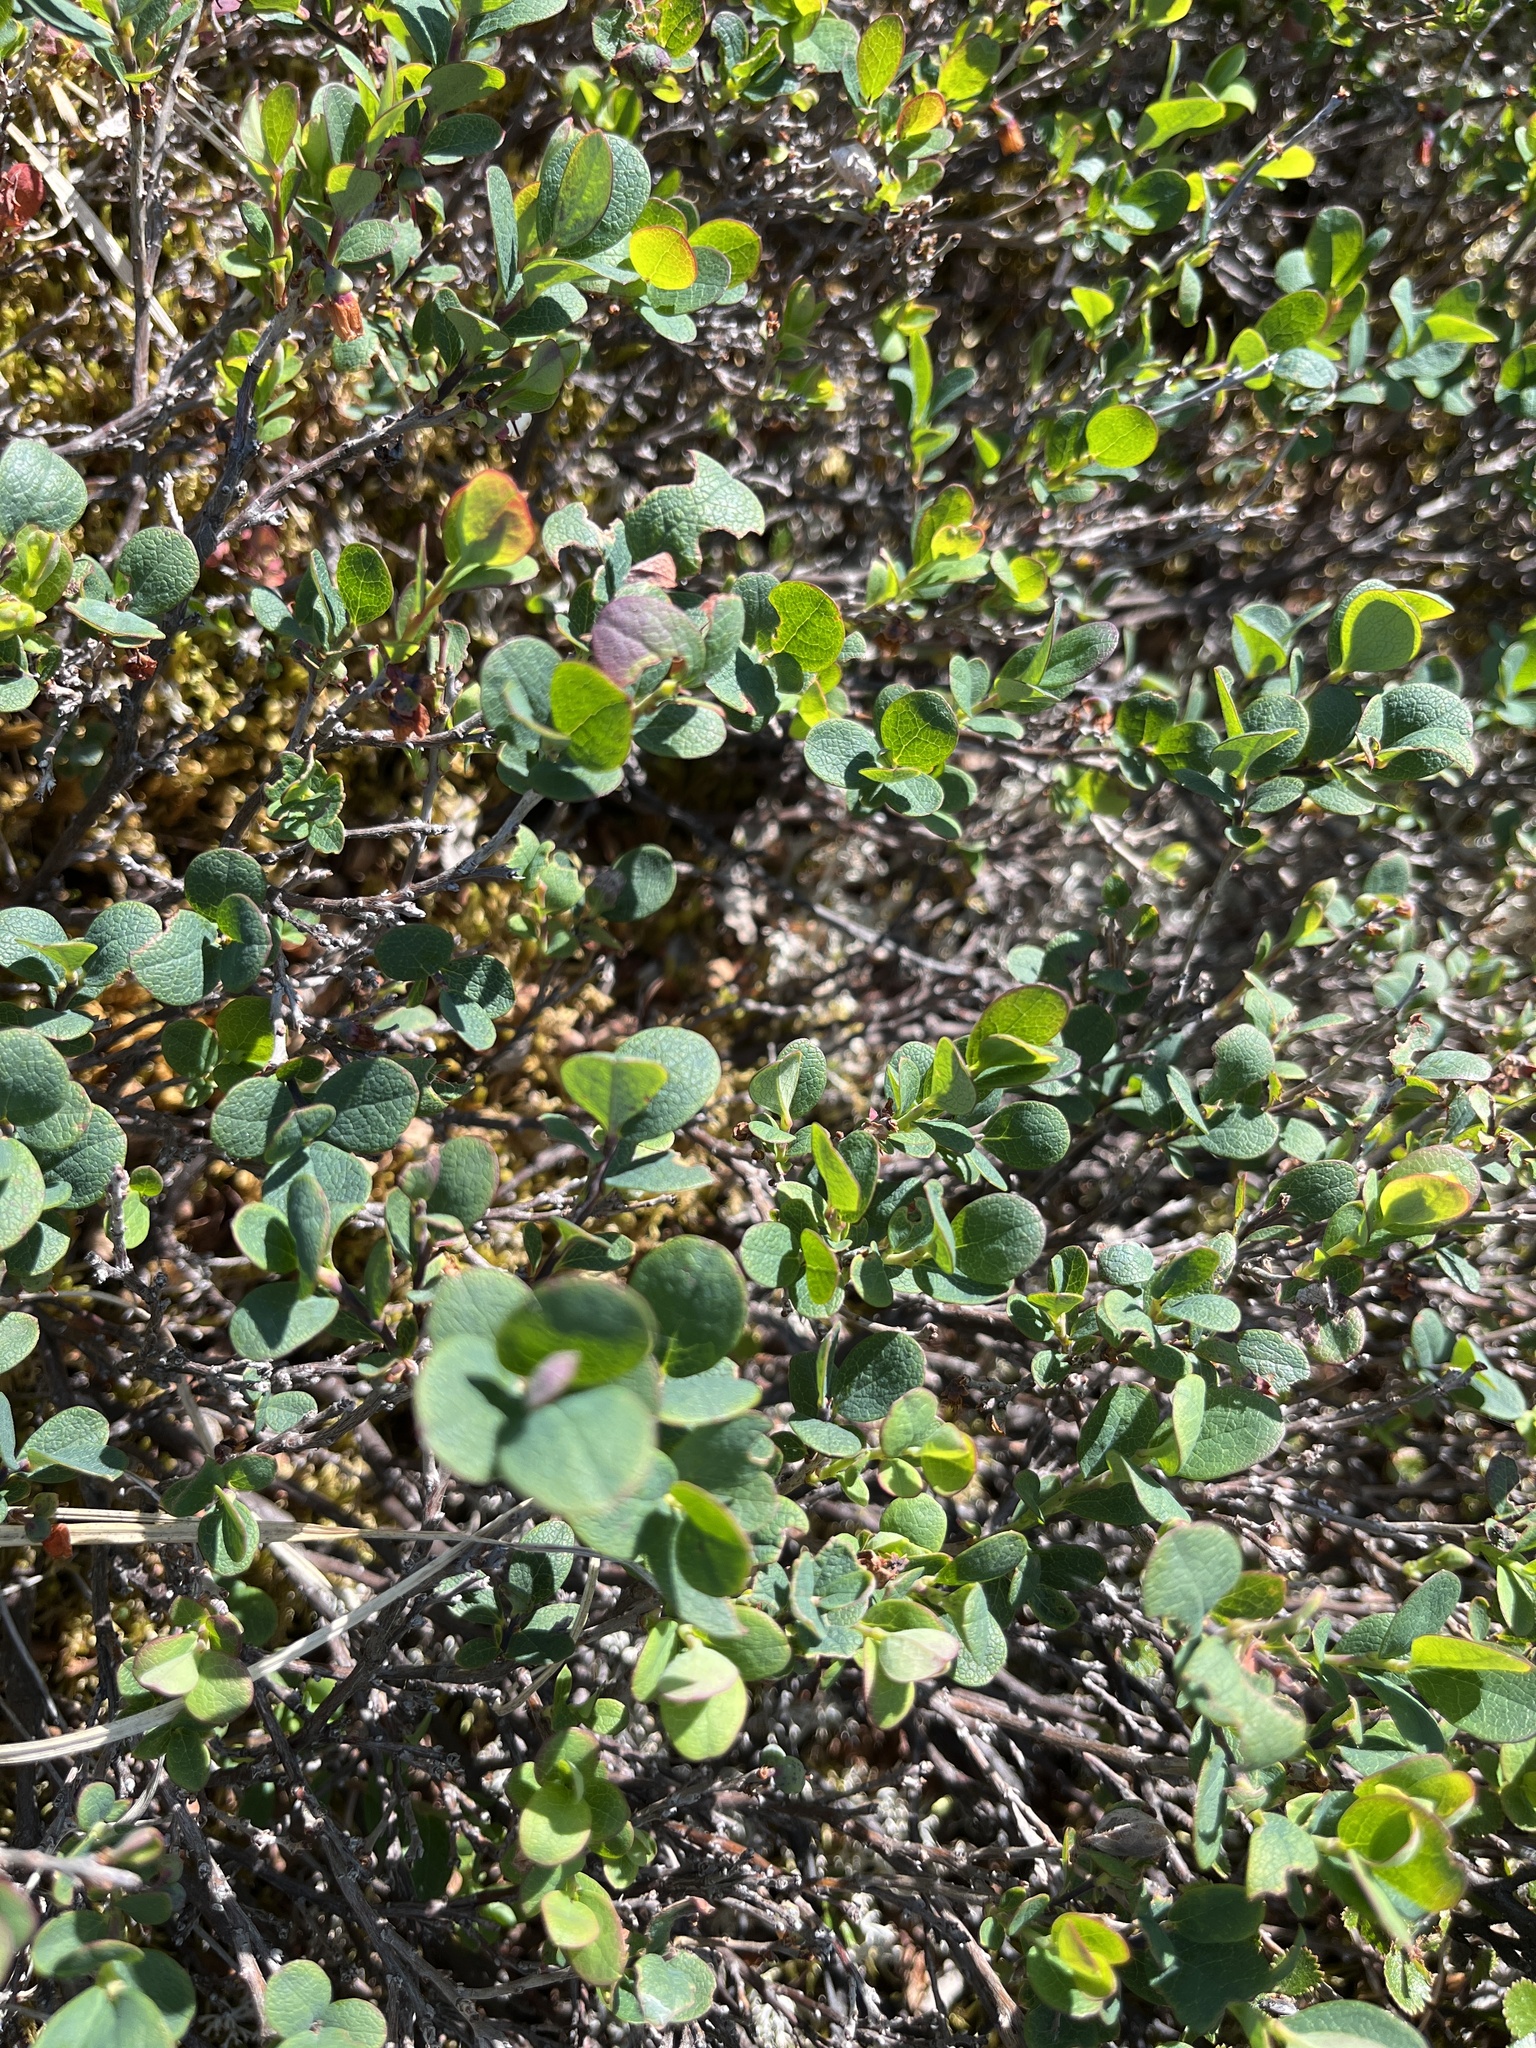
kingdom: Plantae
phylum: Tracheophyta
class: Magnoliopsida
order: Ericales
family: Ericaceae
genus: Vaccinium
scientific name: Vaccinium uliginosum
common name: Bog bilberry
